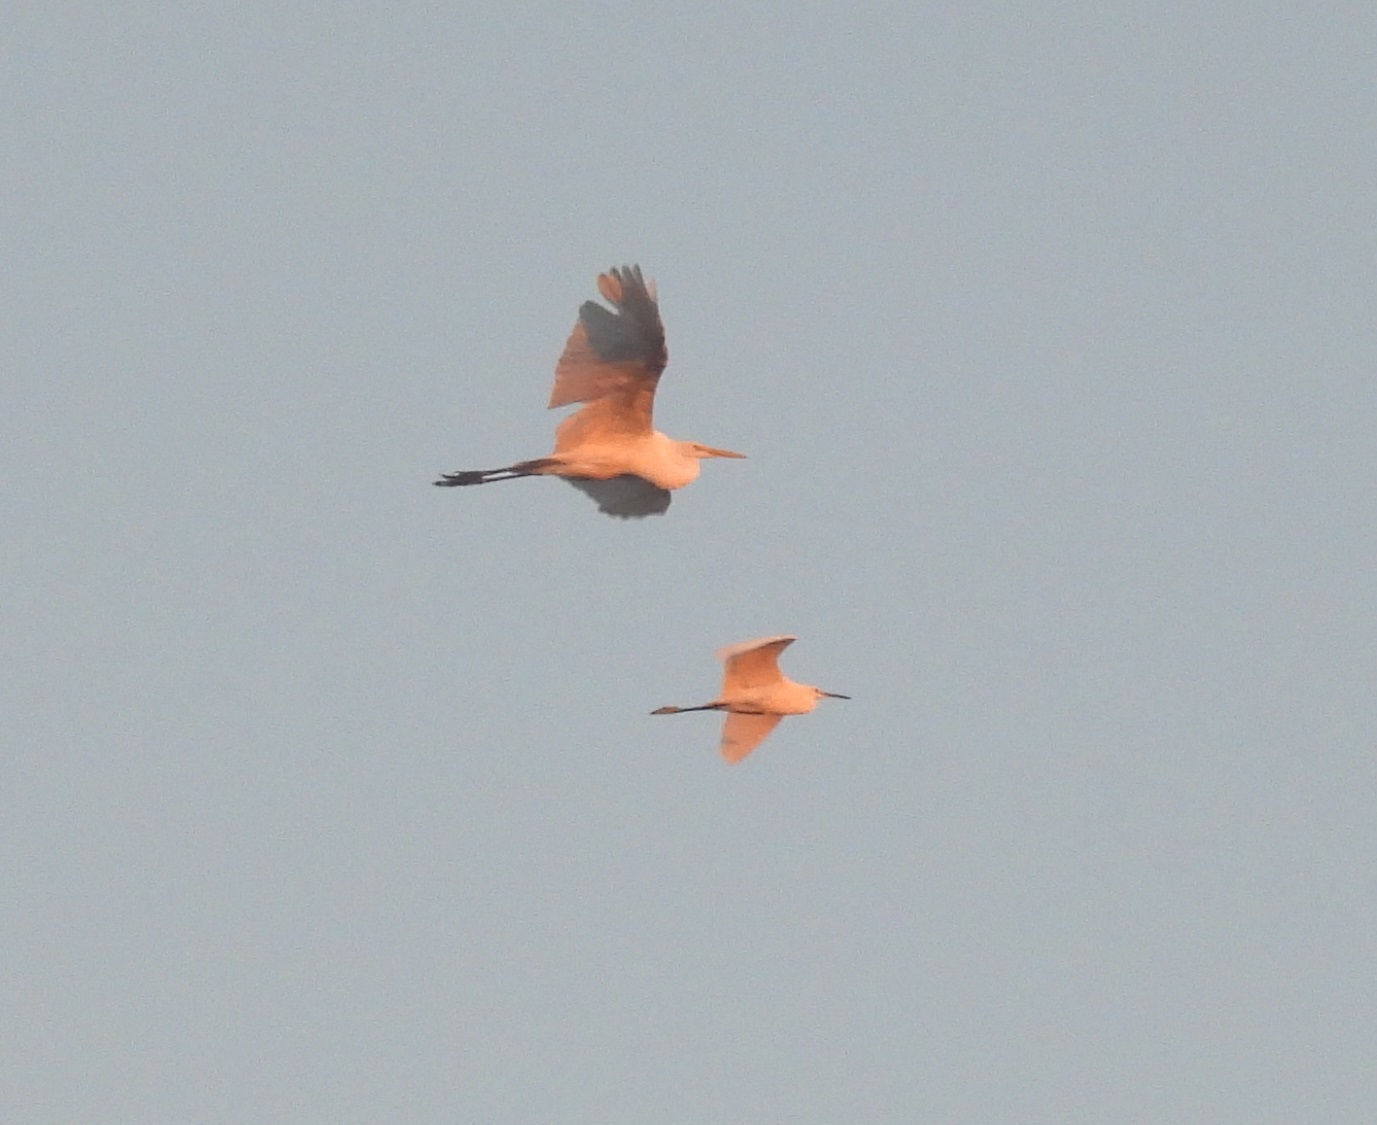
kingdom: Animalia
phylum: Chordata
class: Aves
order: Pelecaniformes
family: Ardeidae
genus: Egretta
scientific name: Egretta thula
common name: Snowy egret
